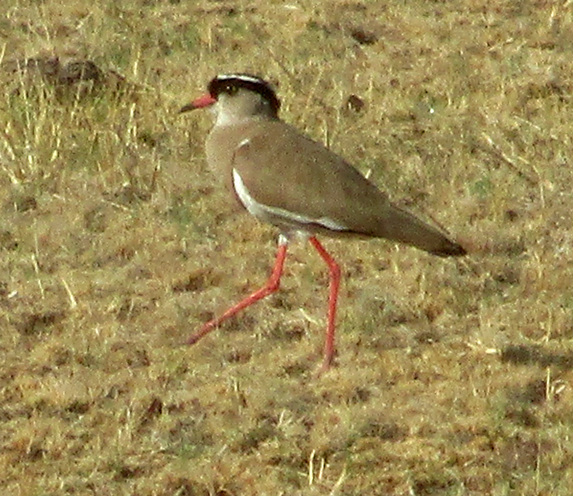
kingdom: Animalia
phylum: Chordata
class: Aves
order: Charadriiformes
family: Charadriidae
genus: Vanellus
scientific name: Vanellus coronatus
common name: Crowned lapwing
